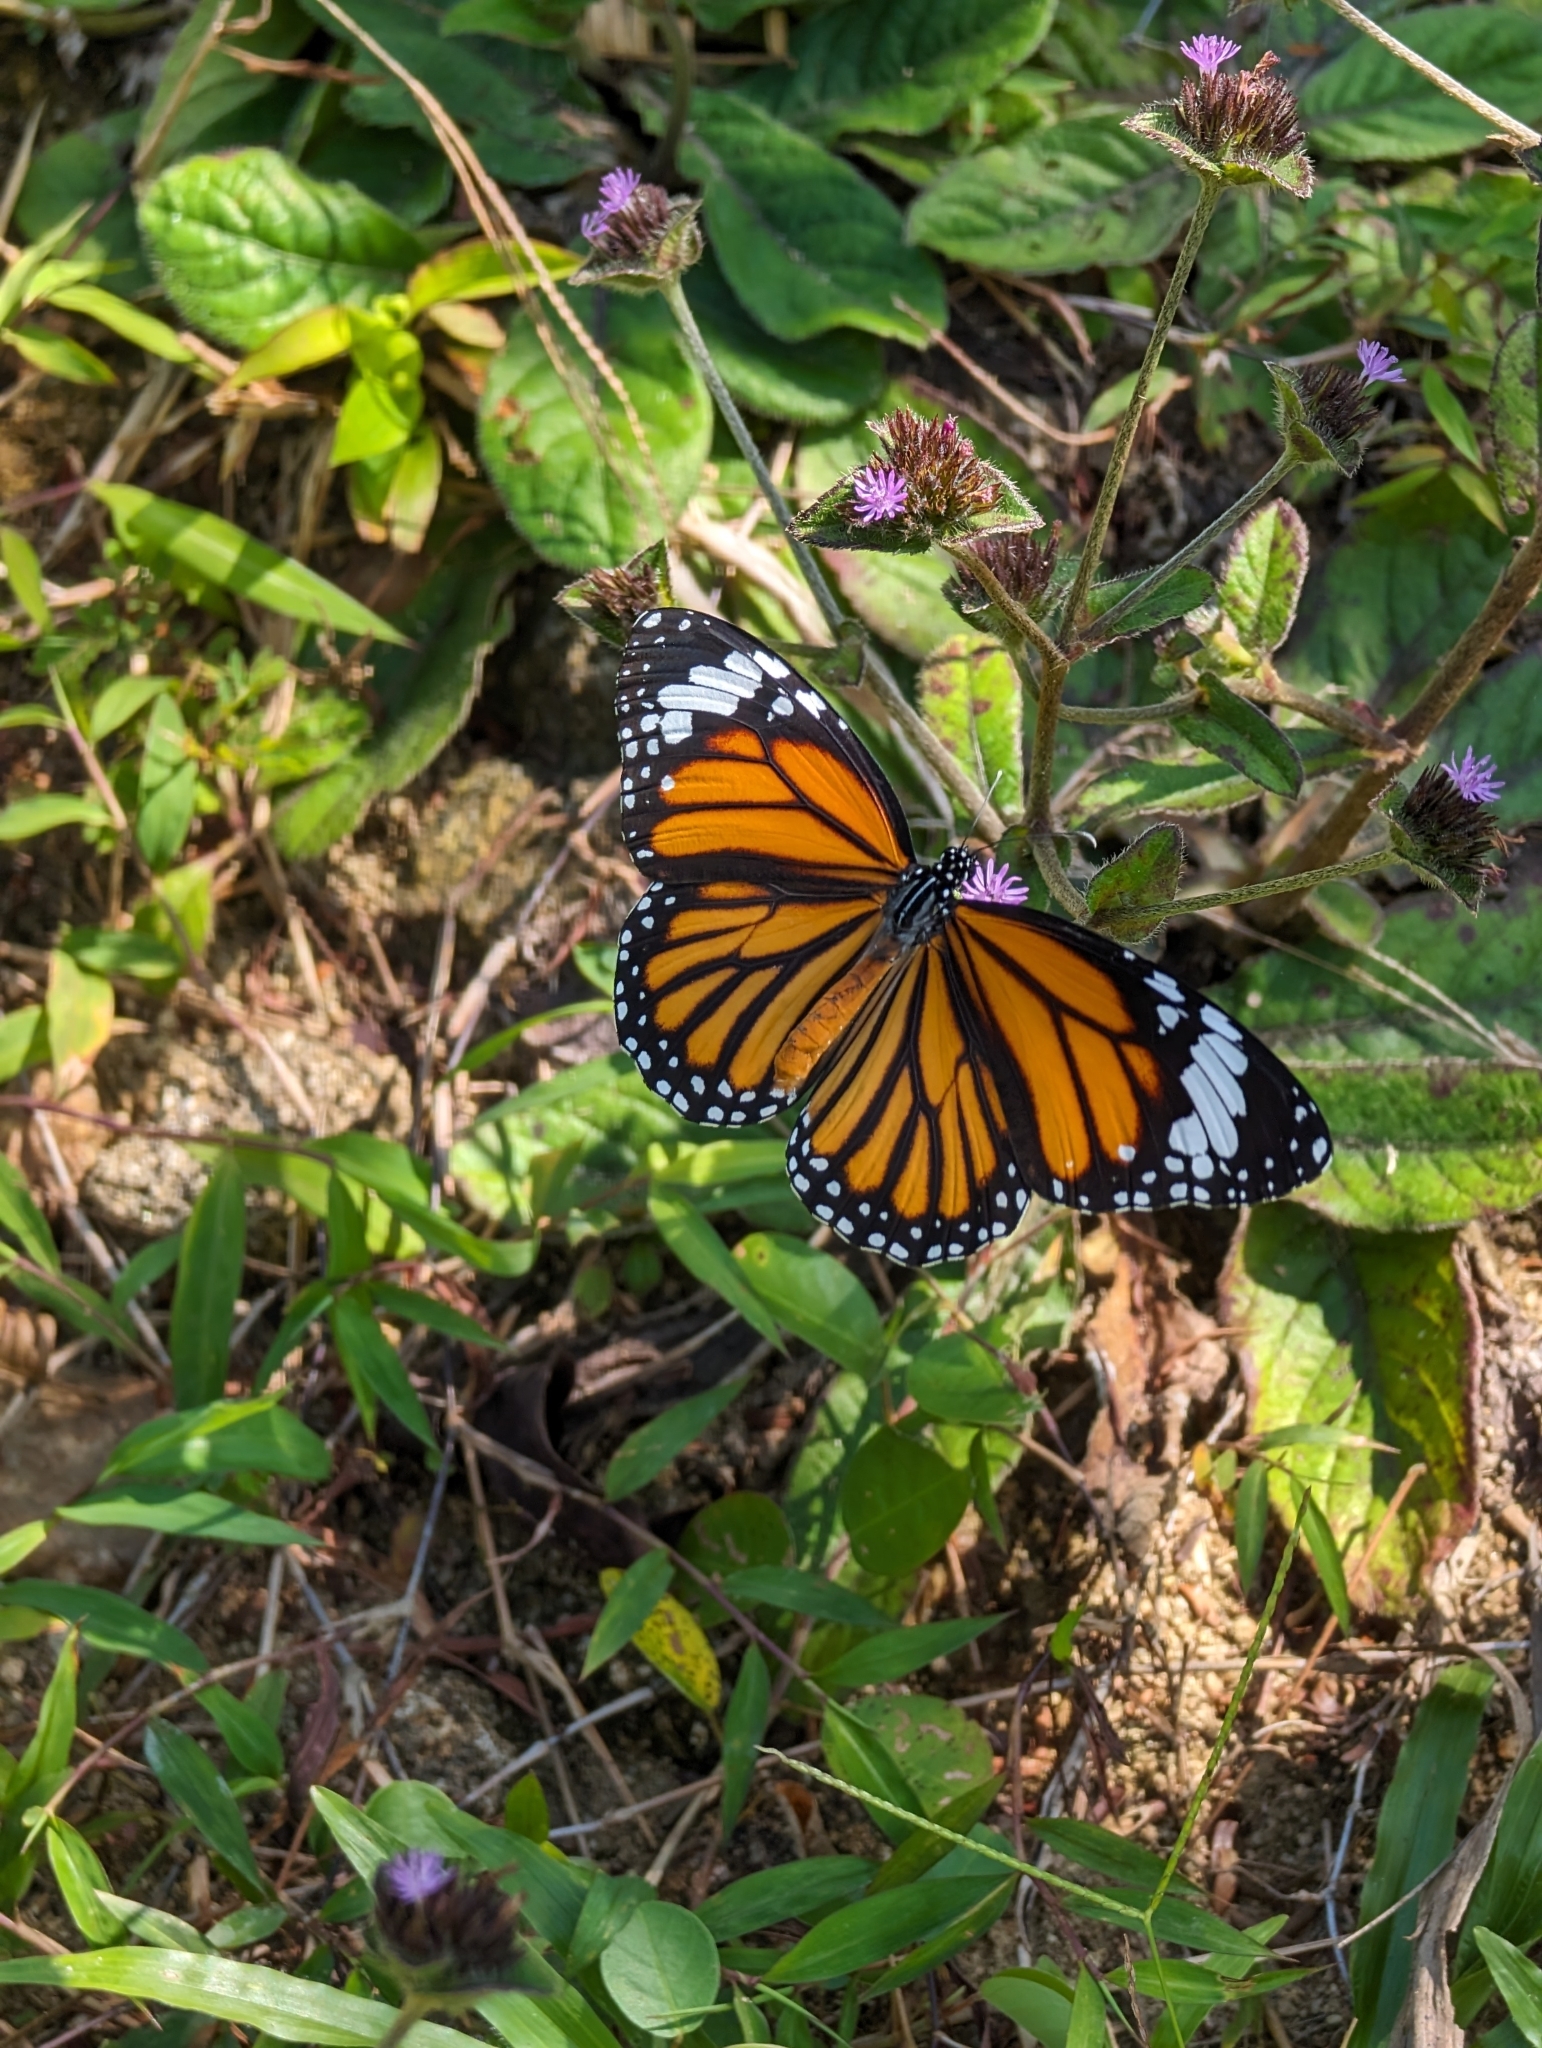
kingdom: Animalia
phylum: Arthropoda
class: Insecta
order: Lepidoptera
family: Nymphalidae
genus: Danaus
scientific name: Danaus genutia
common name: Common tiger butterfly
